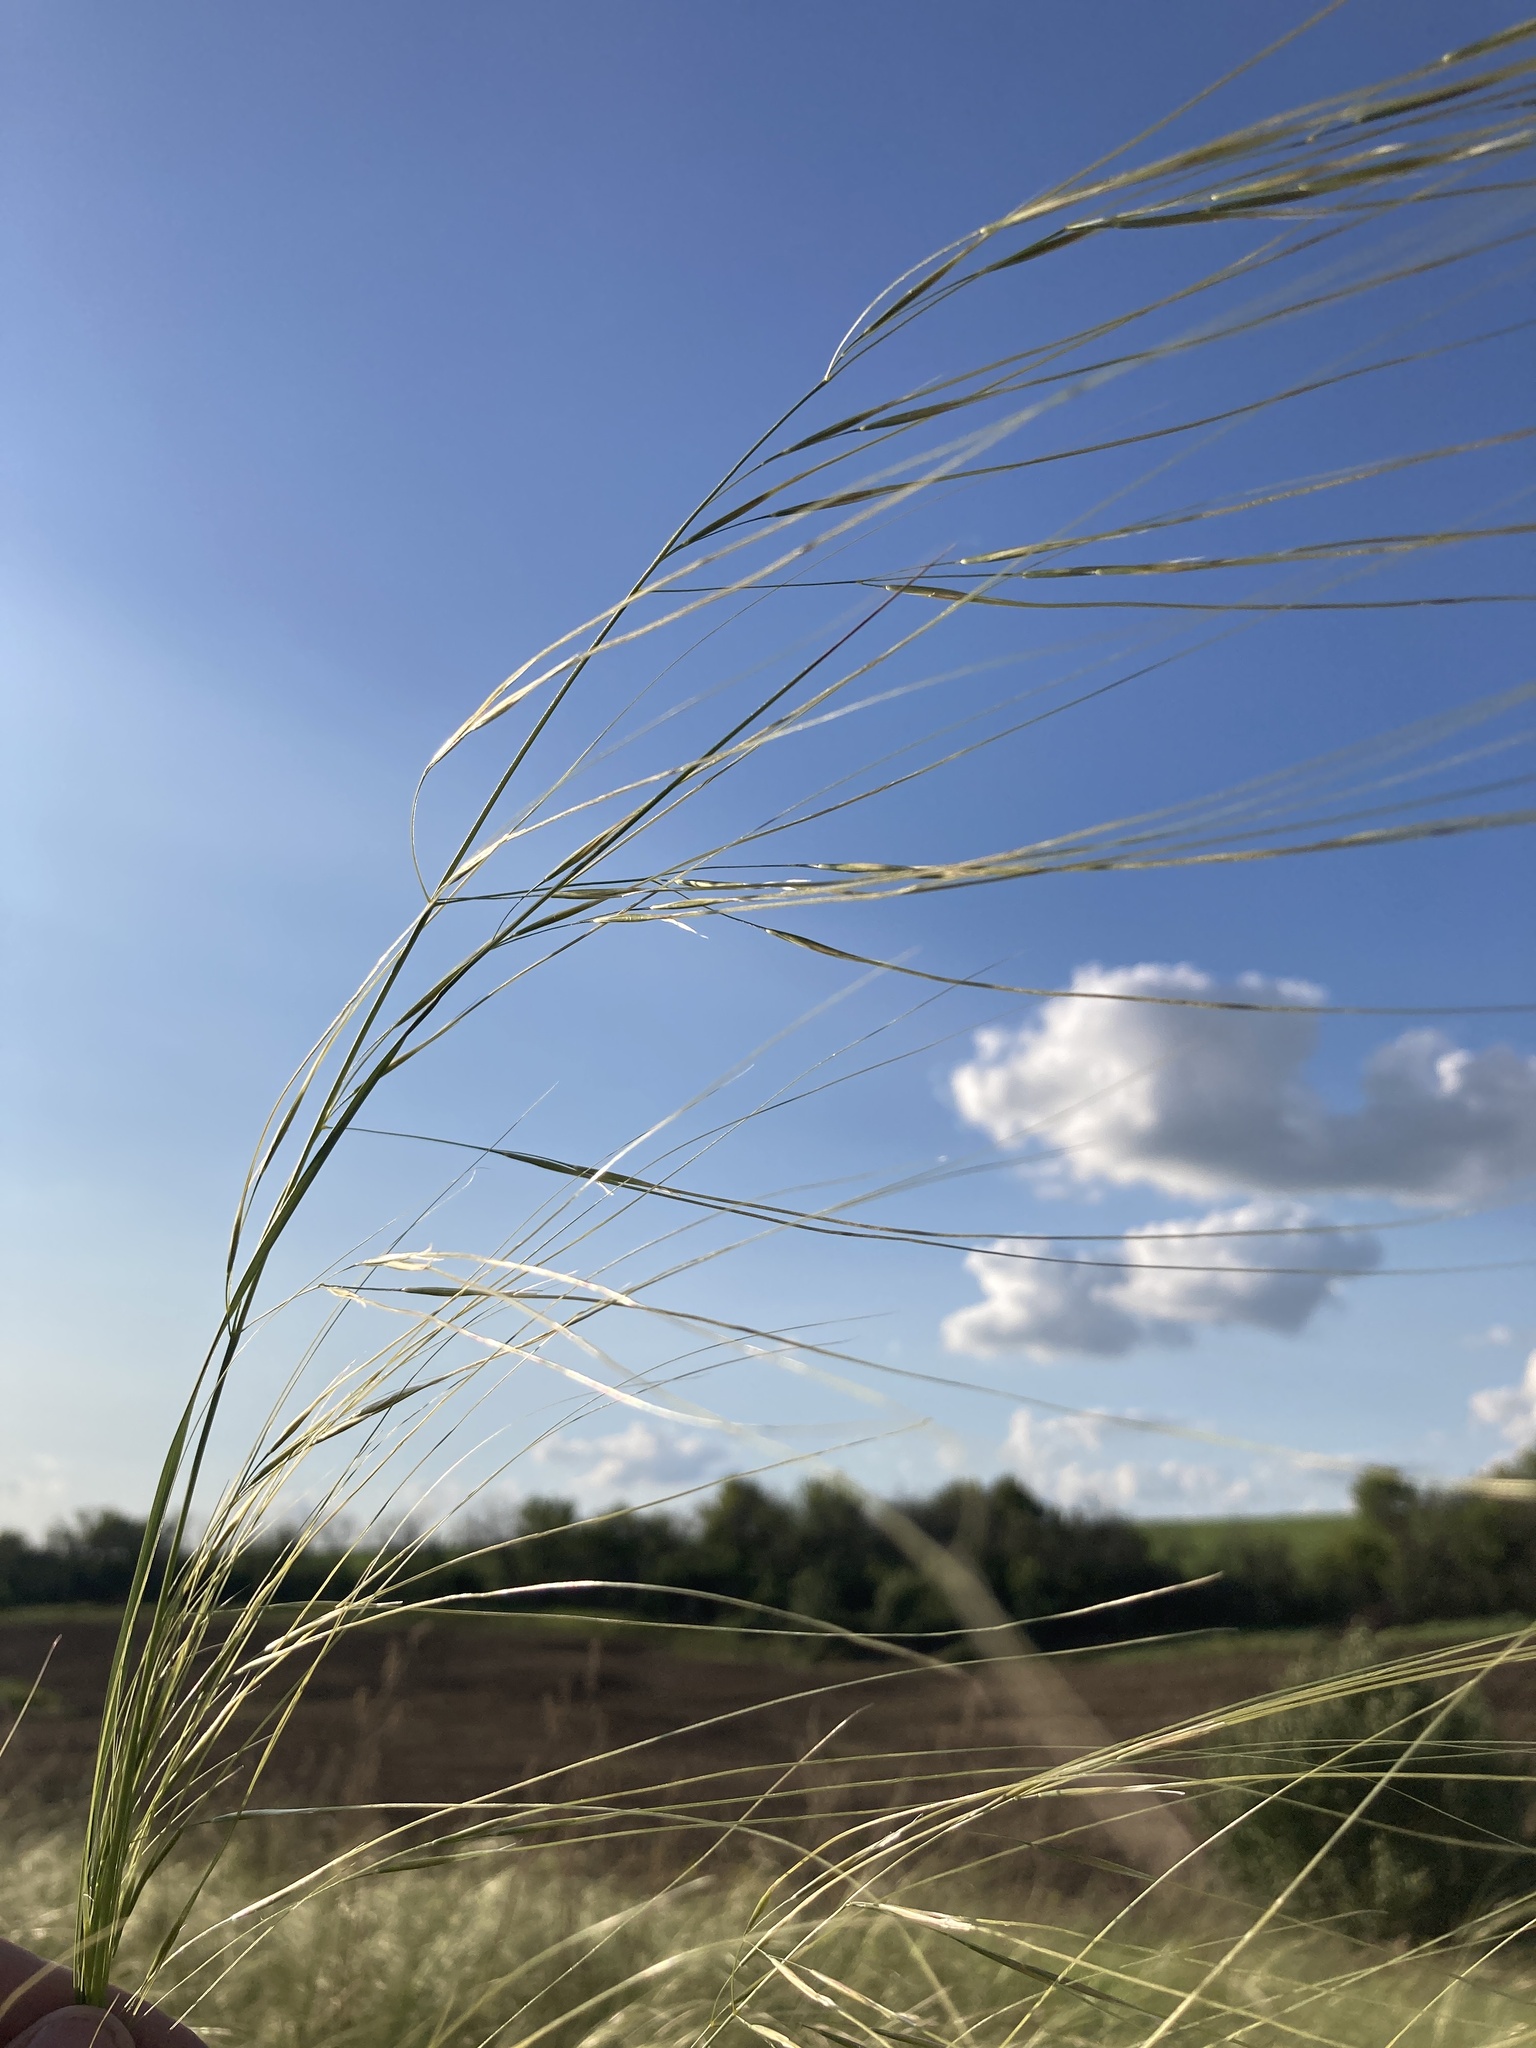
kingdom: Plantae
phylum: Tracheophyta
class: Liliopsida
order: Poales
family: Poaceae
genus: Stipa
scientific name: Stipa capillata
